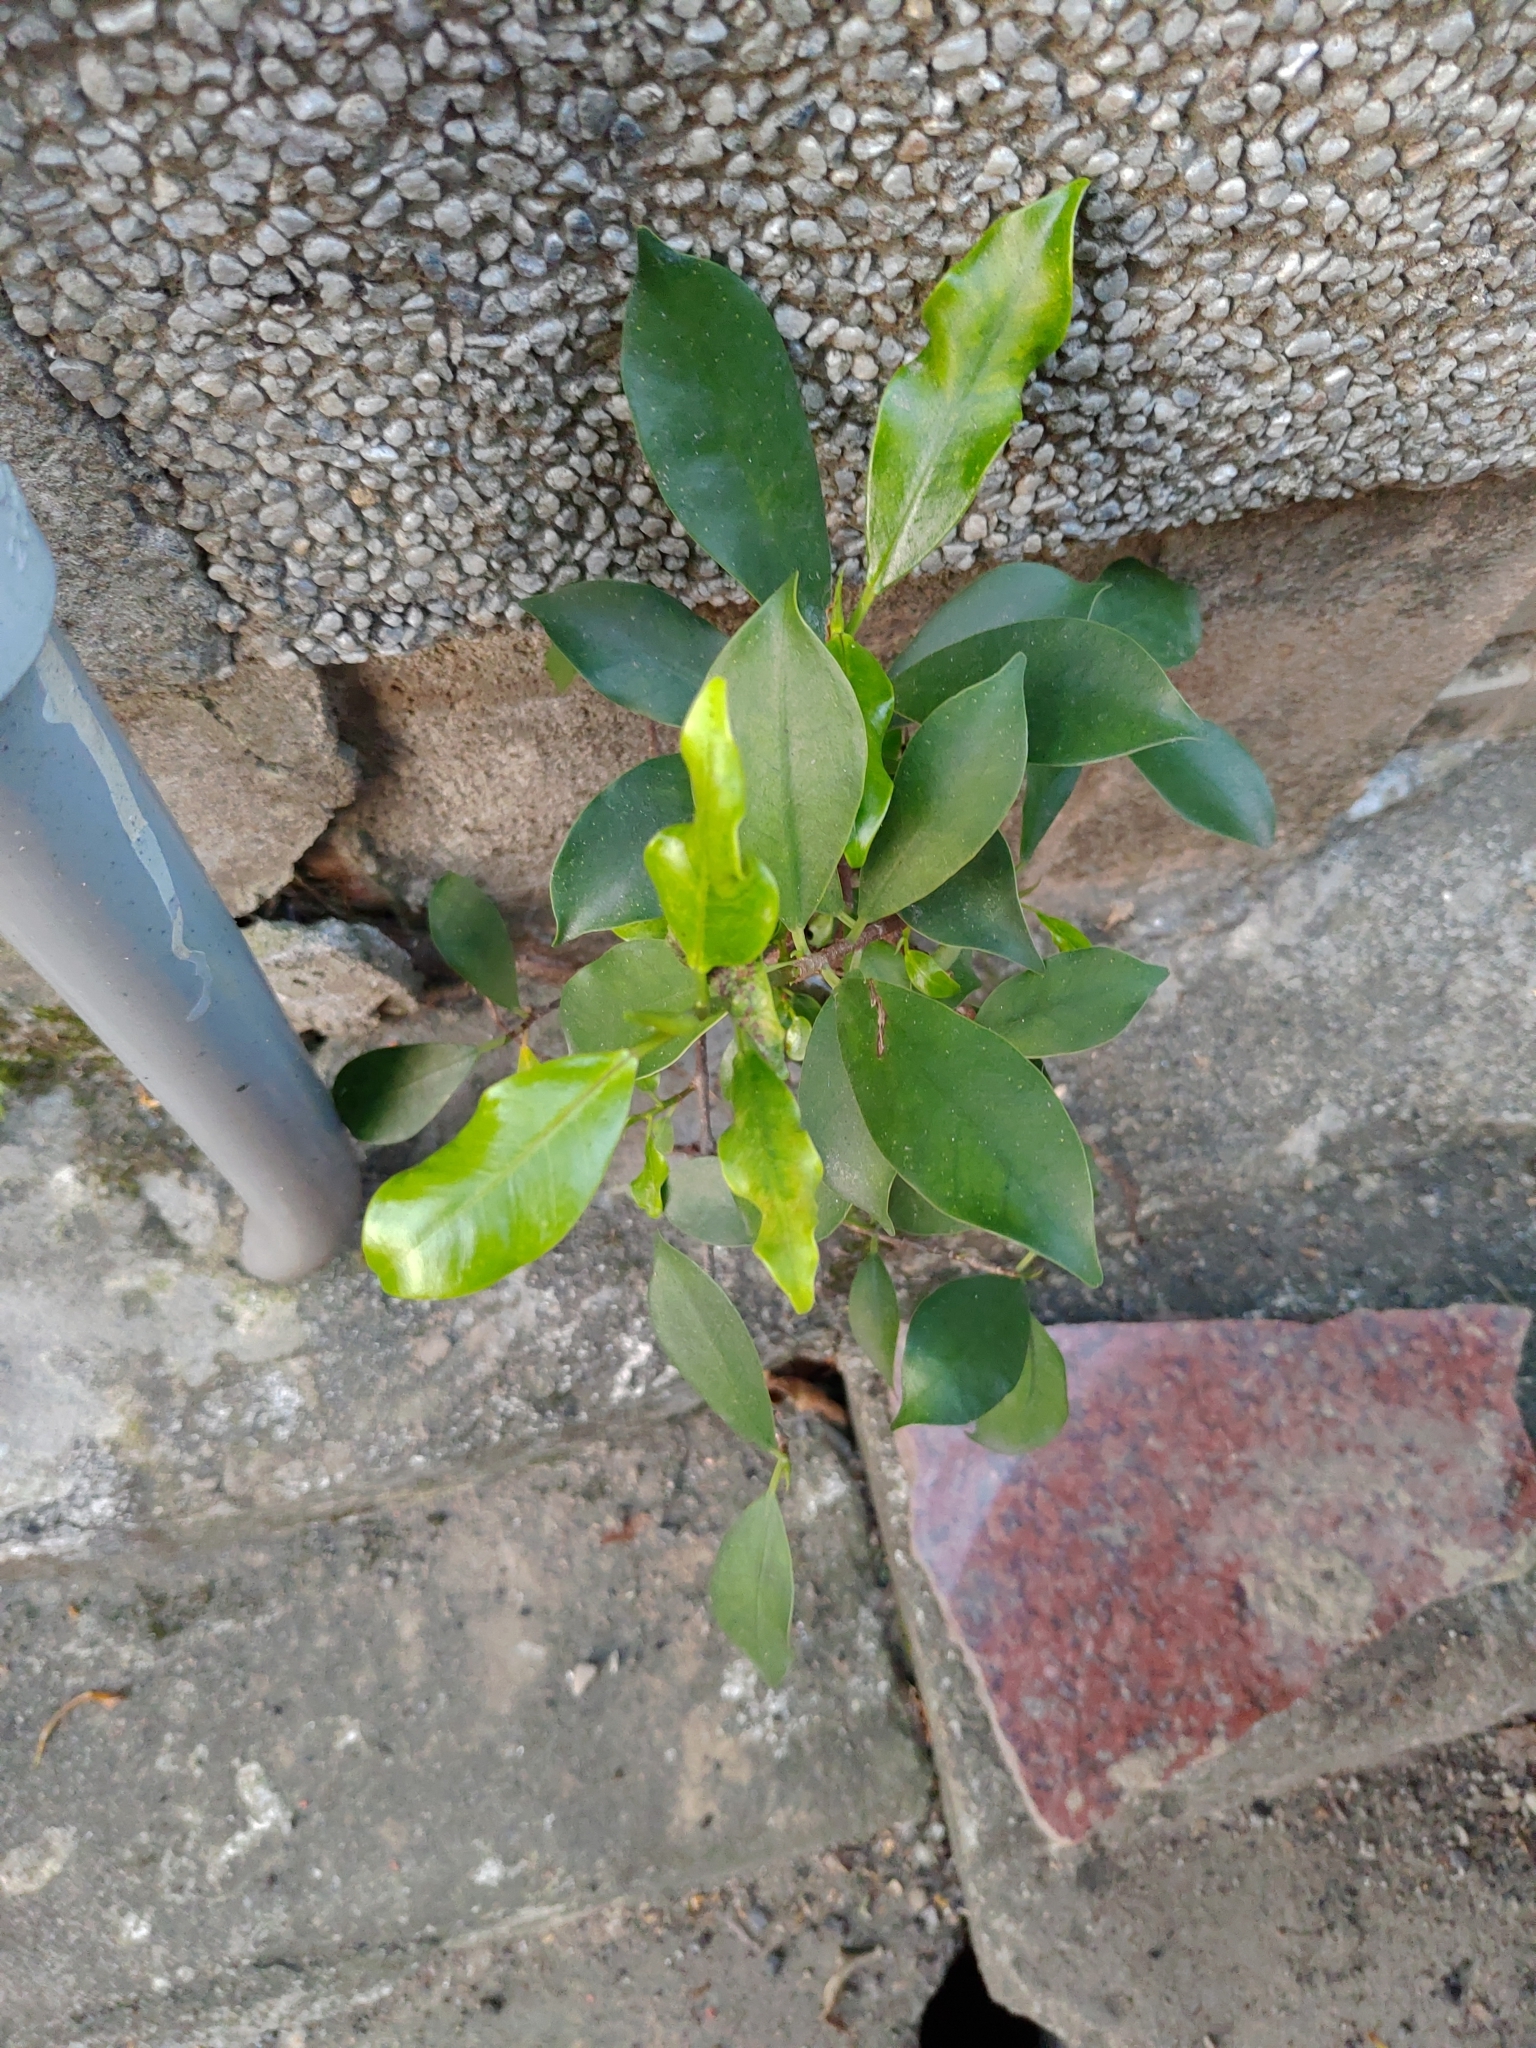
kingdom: Plantae
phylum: Tracheophyta
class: Magnoliopsida
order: Rosales
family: Moraceae
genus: Ficus
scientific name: Ficus microcarpa
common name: Chinese banyan
